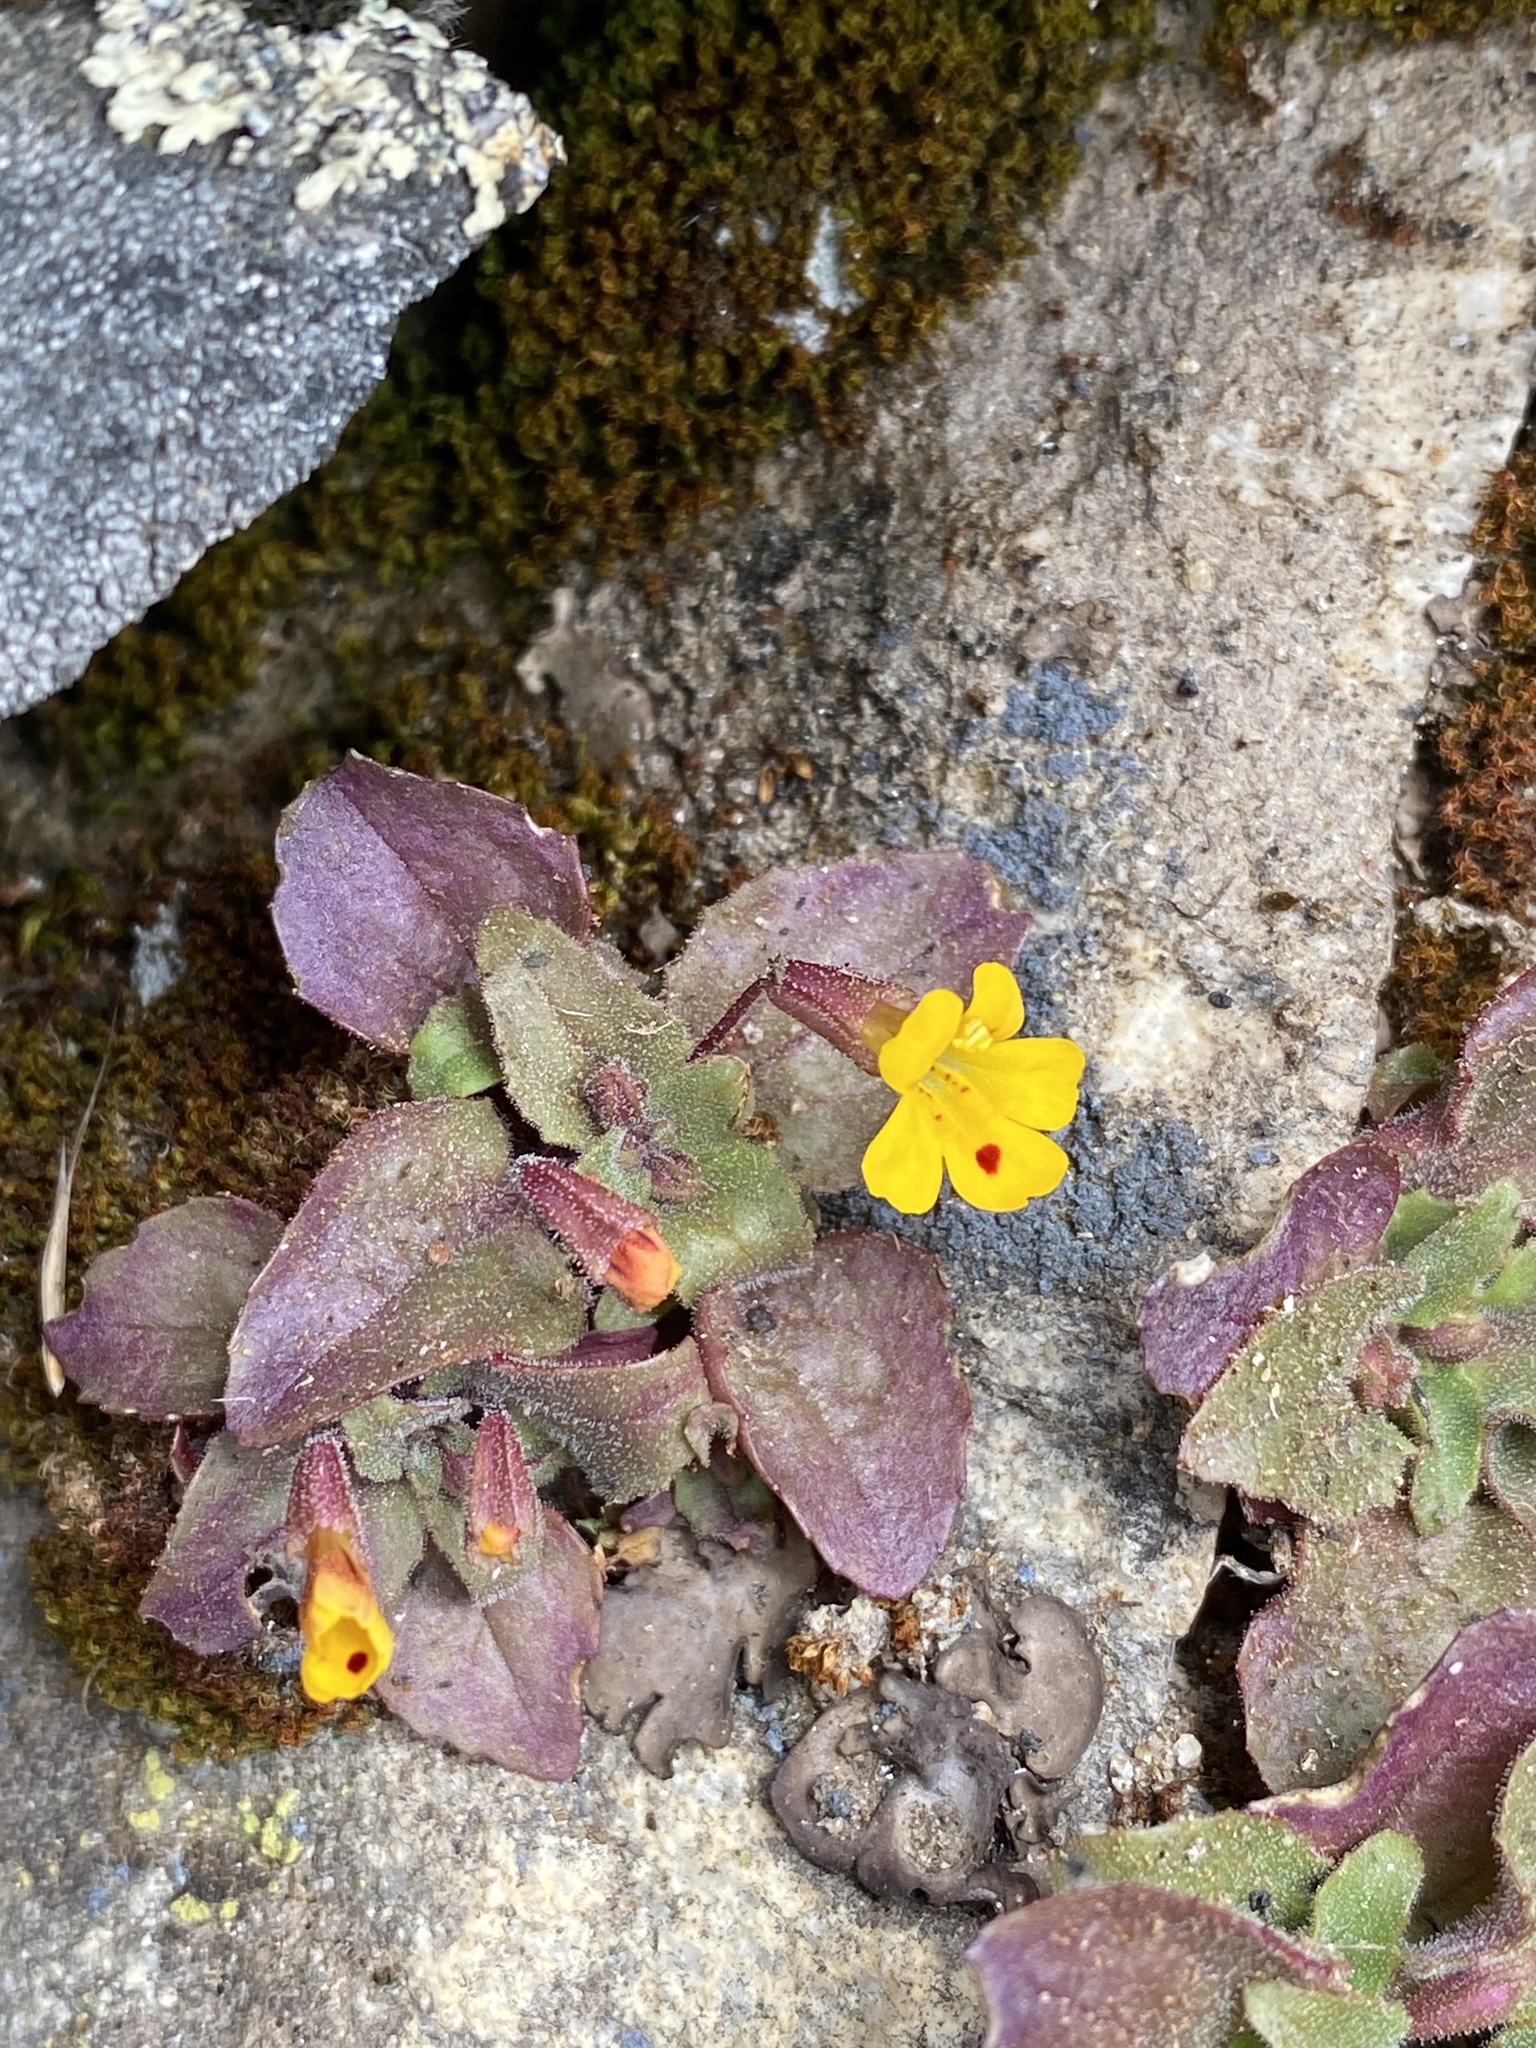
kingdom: Plantae
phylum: Tracheophyta
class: Magnoliopsida
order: Lamiales
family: Phrymaceae
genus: Erythranthe
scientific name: Erythranthe alsinoides
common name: Chickweed monkeyflower
